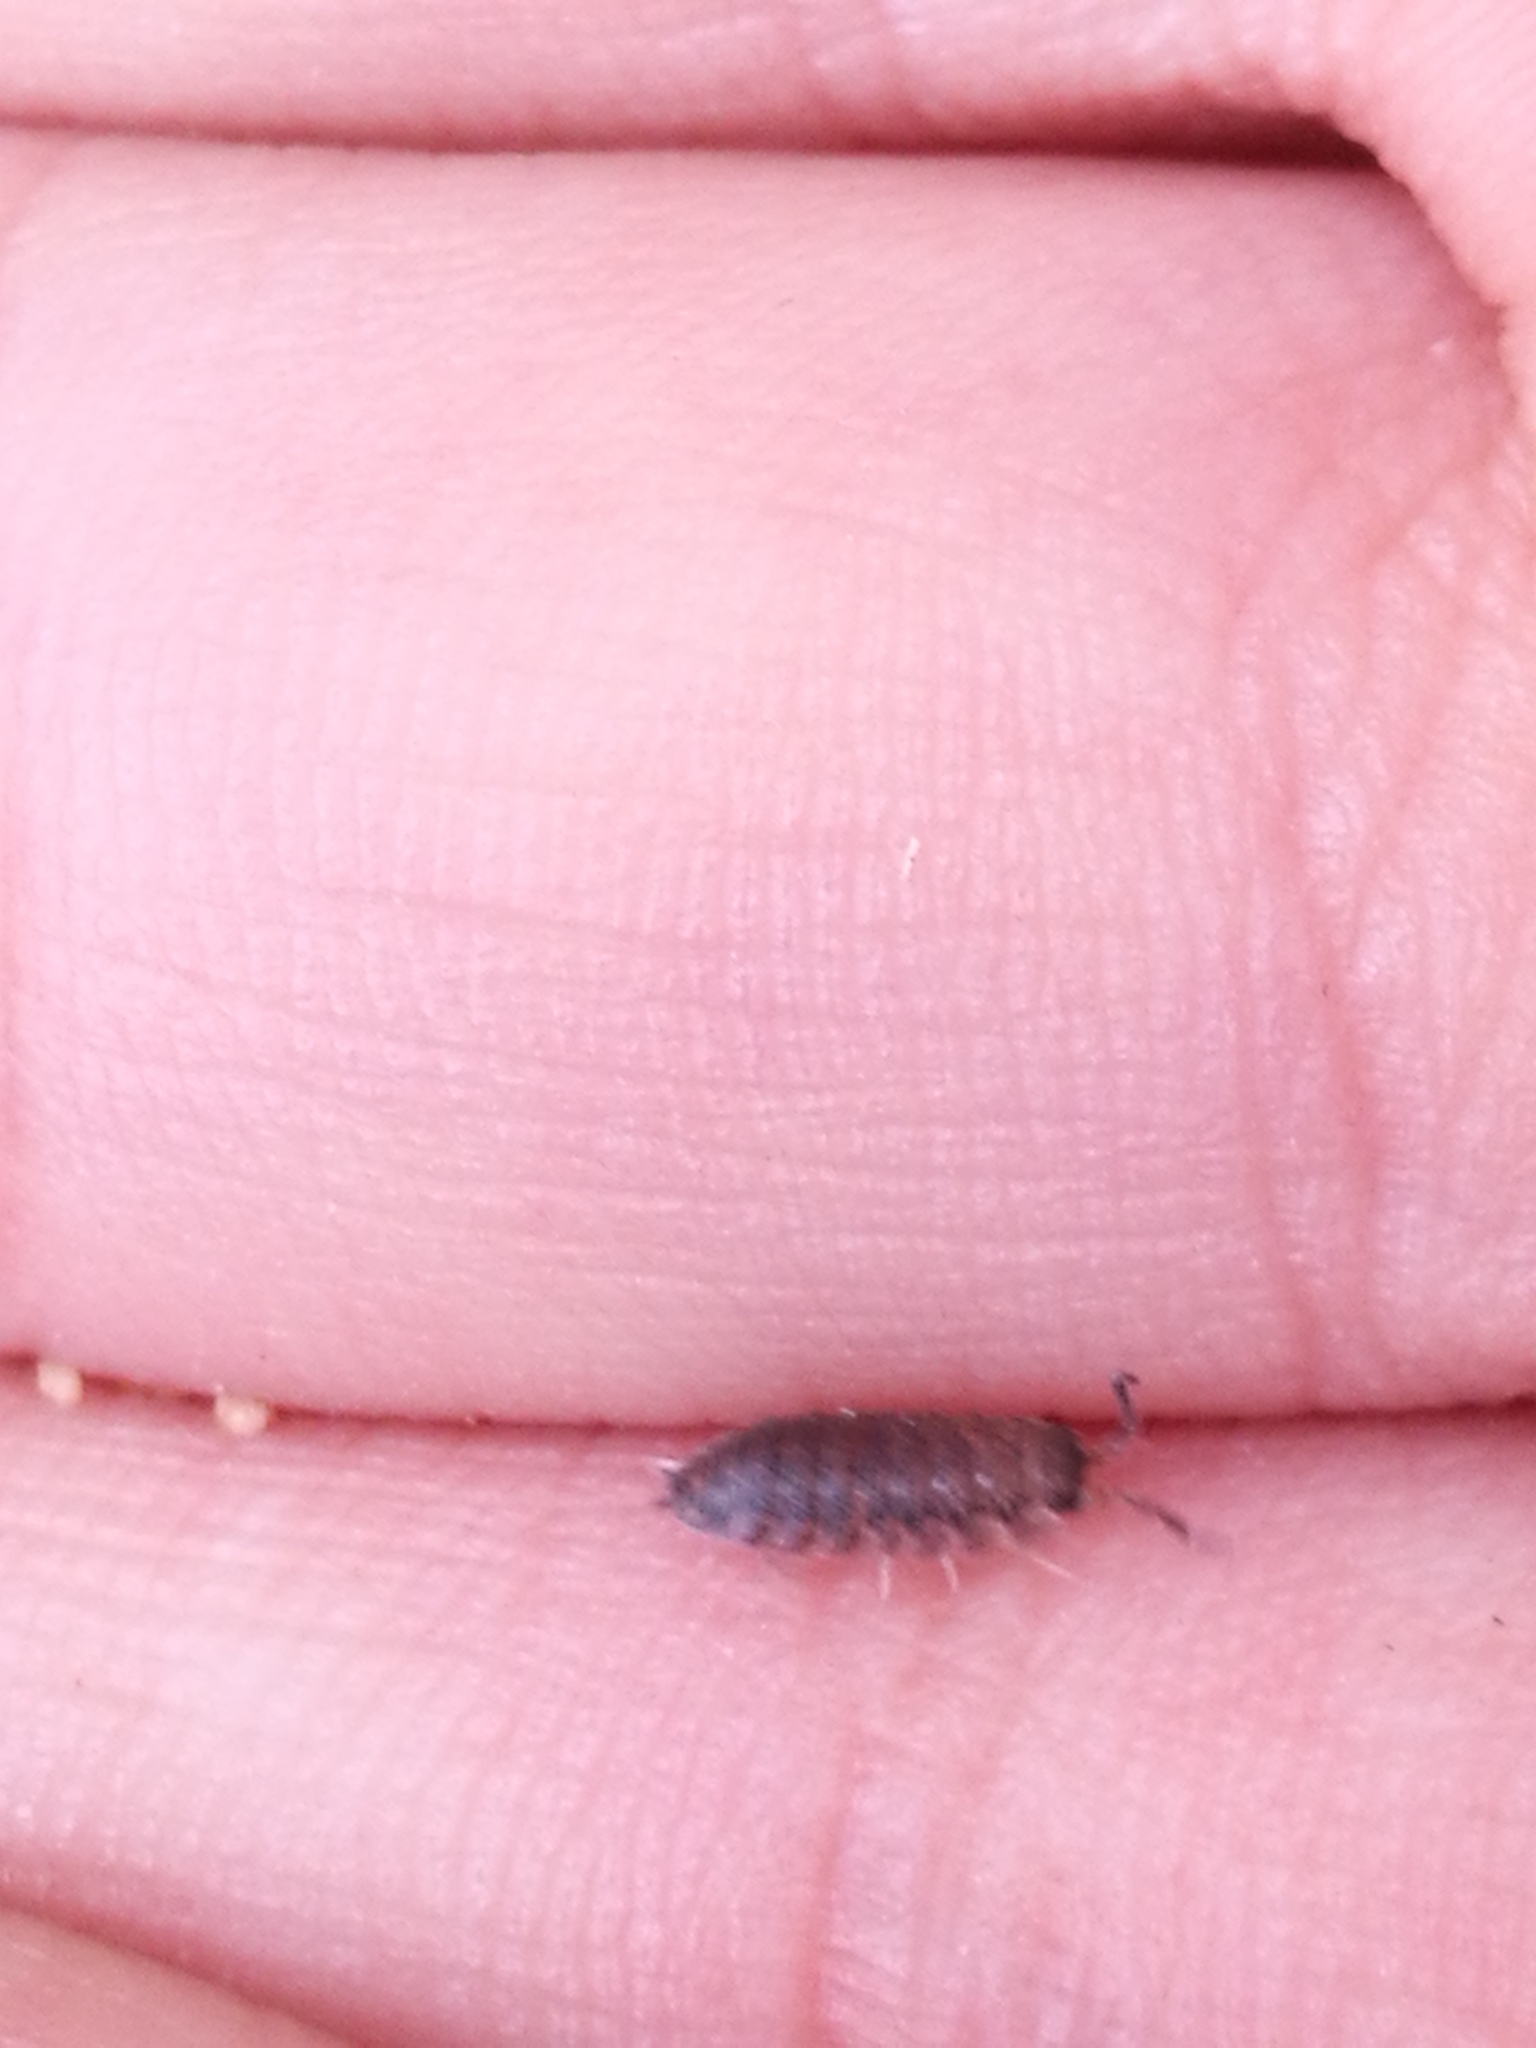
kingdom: Animalia
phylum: Arthropoda
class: Malacostraca
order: Isopoda
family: Porcellionidae
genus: Porcellio
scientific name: Porcellio scaber
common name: Common rough woodlouse
